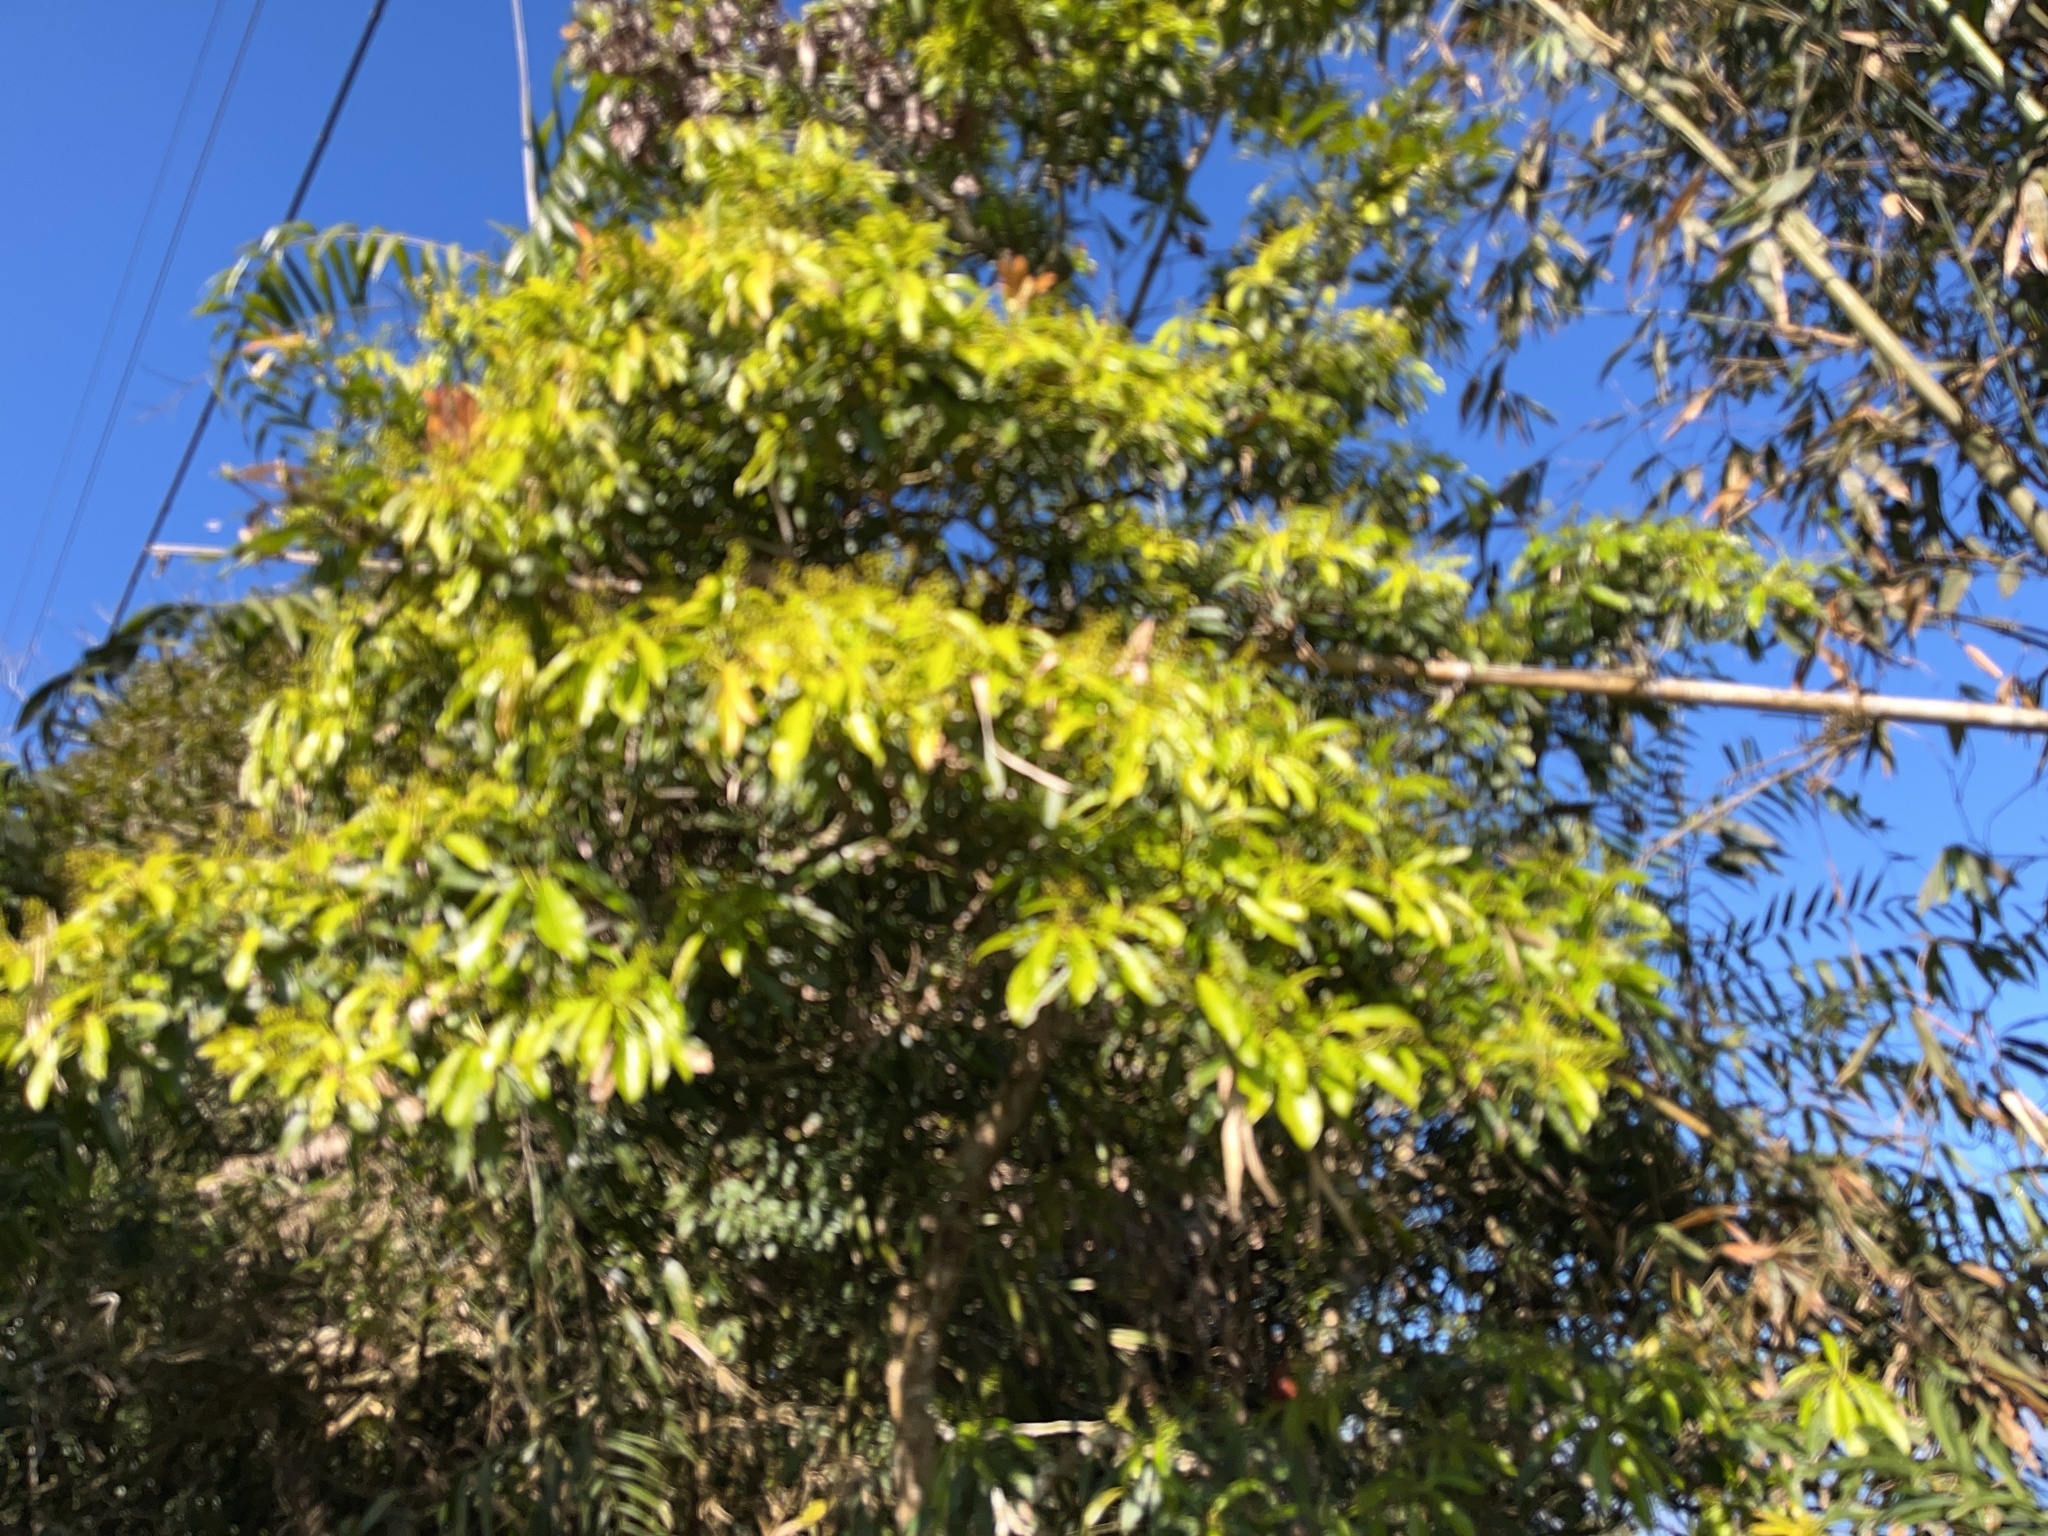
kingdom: Plantae
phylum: Tracheophyta
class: Magnoliopsida
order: Laurales
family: Lauraceae
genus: Machilus
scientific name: Machilus thunbergii
